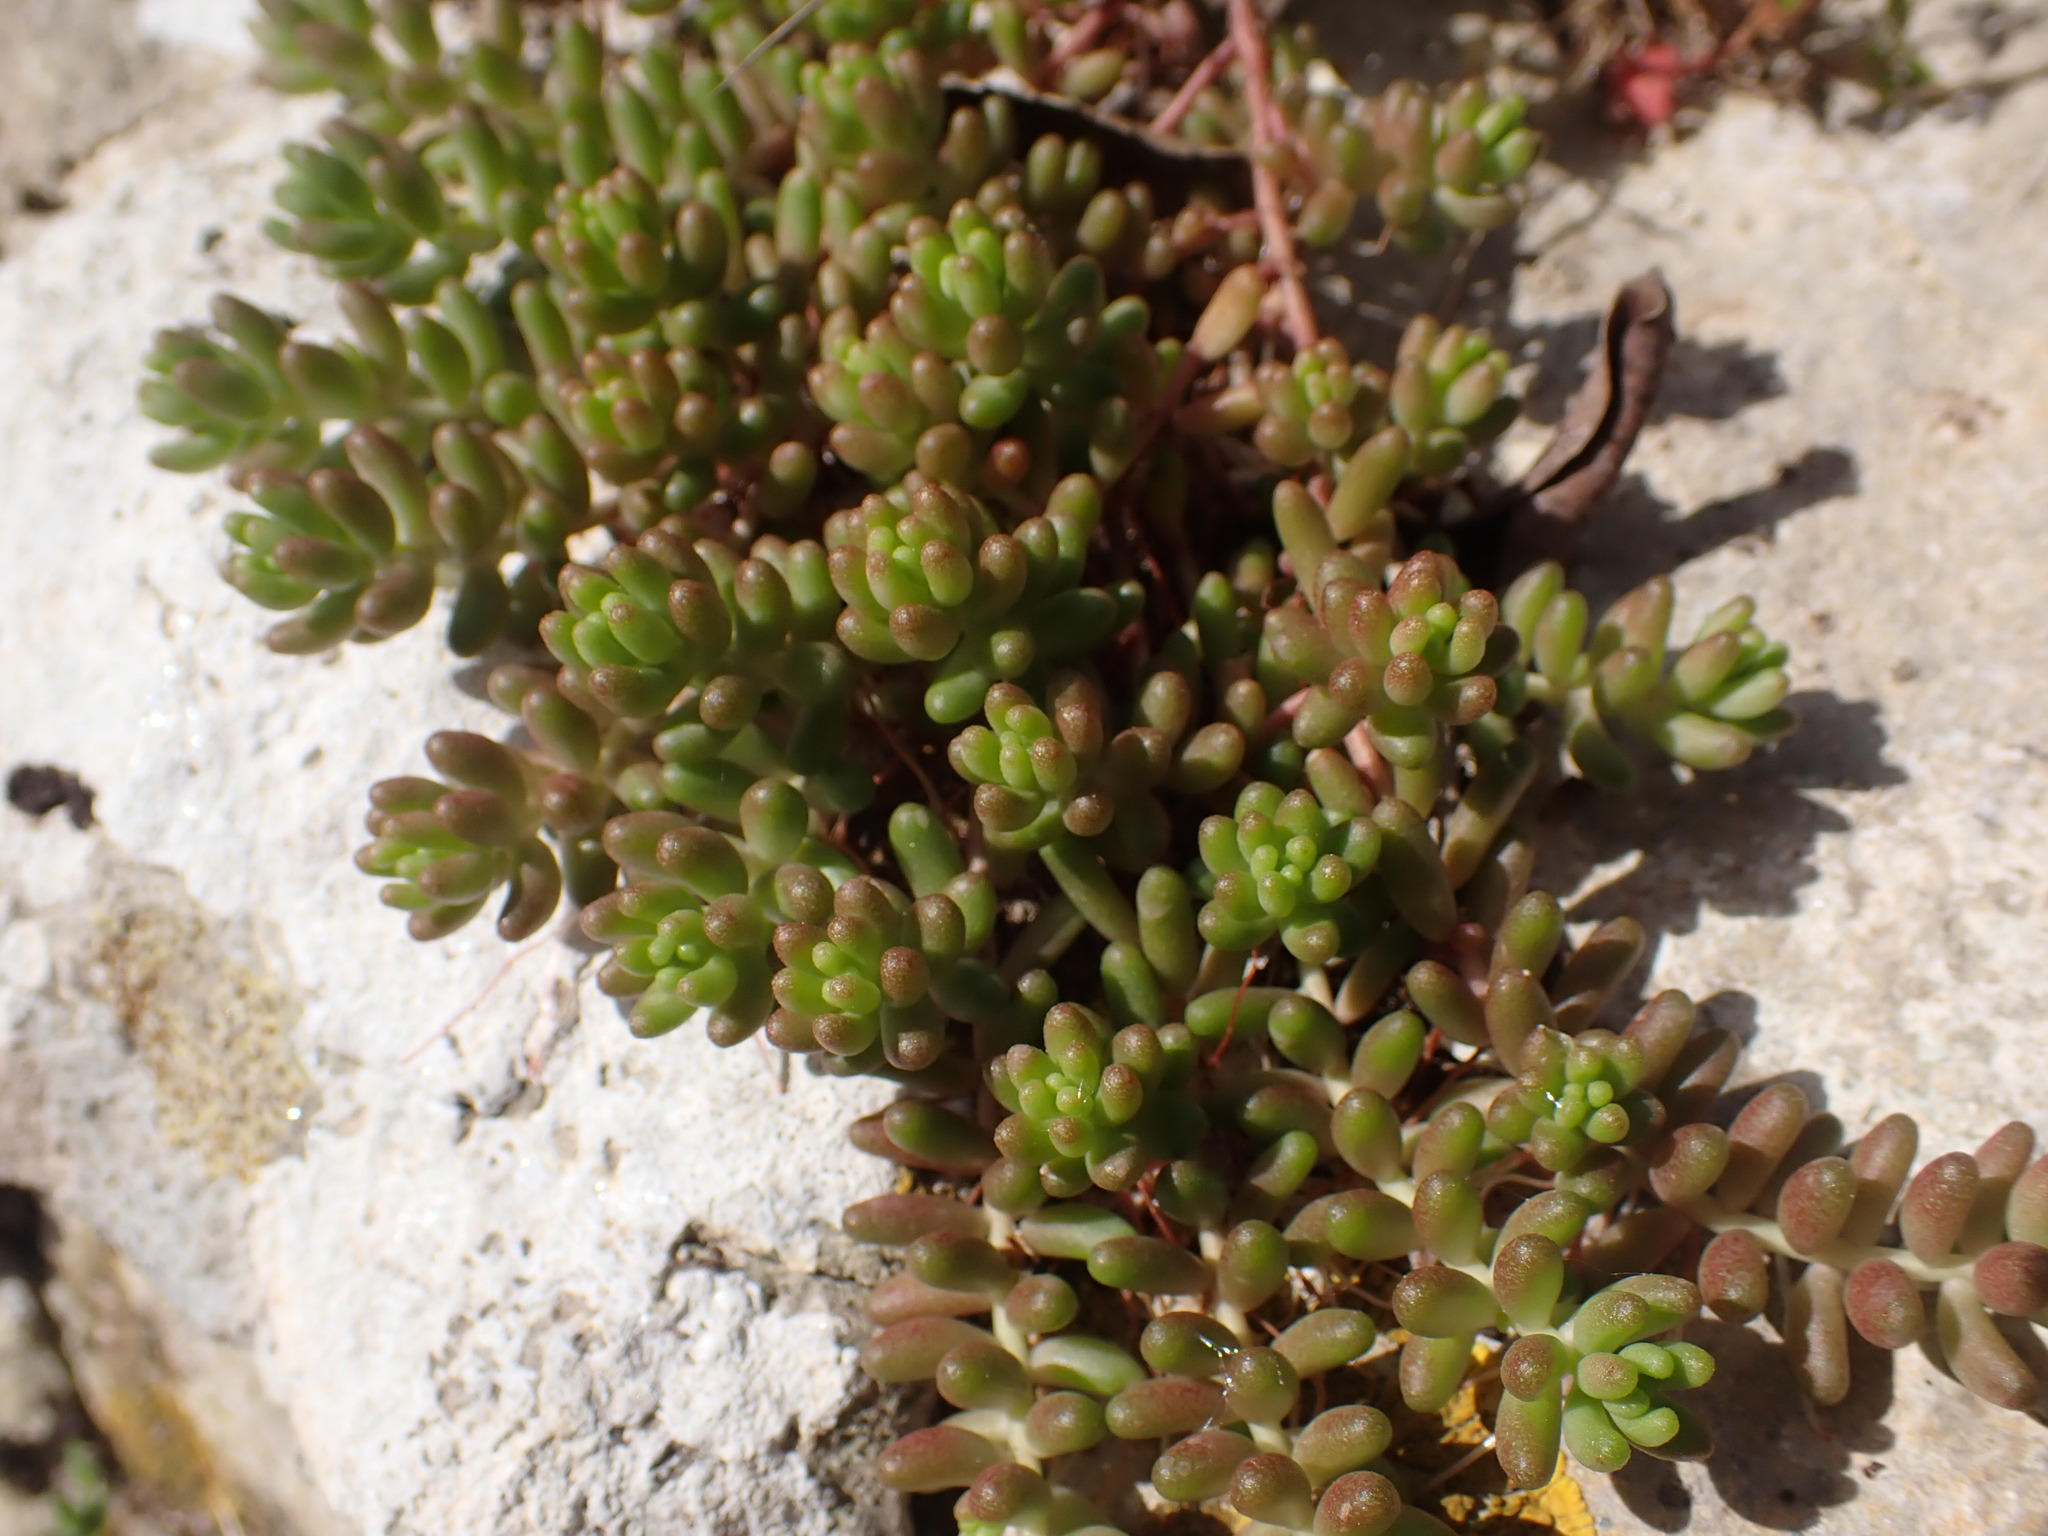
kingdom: Plantae
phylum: Tracheophyta
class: Magnoliopsida
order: Saxifragales
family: Crassulaceae
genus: Sedum
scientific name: Sedum album
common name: White stonecrop
